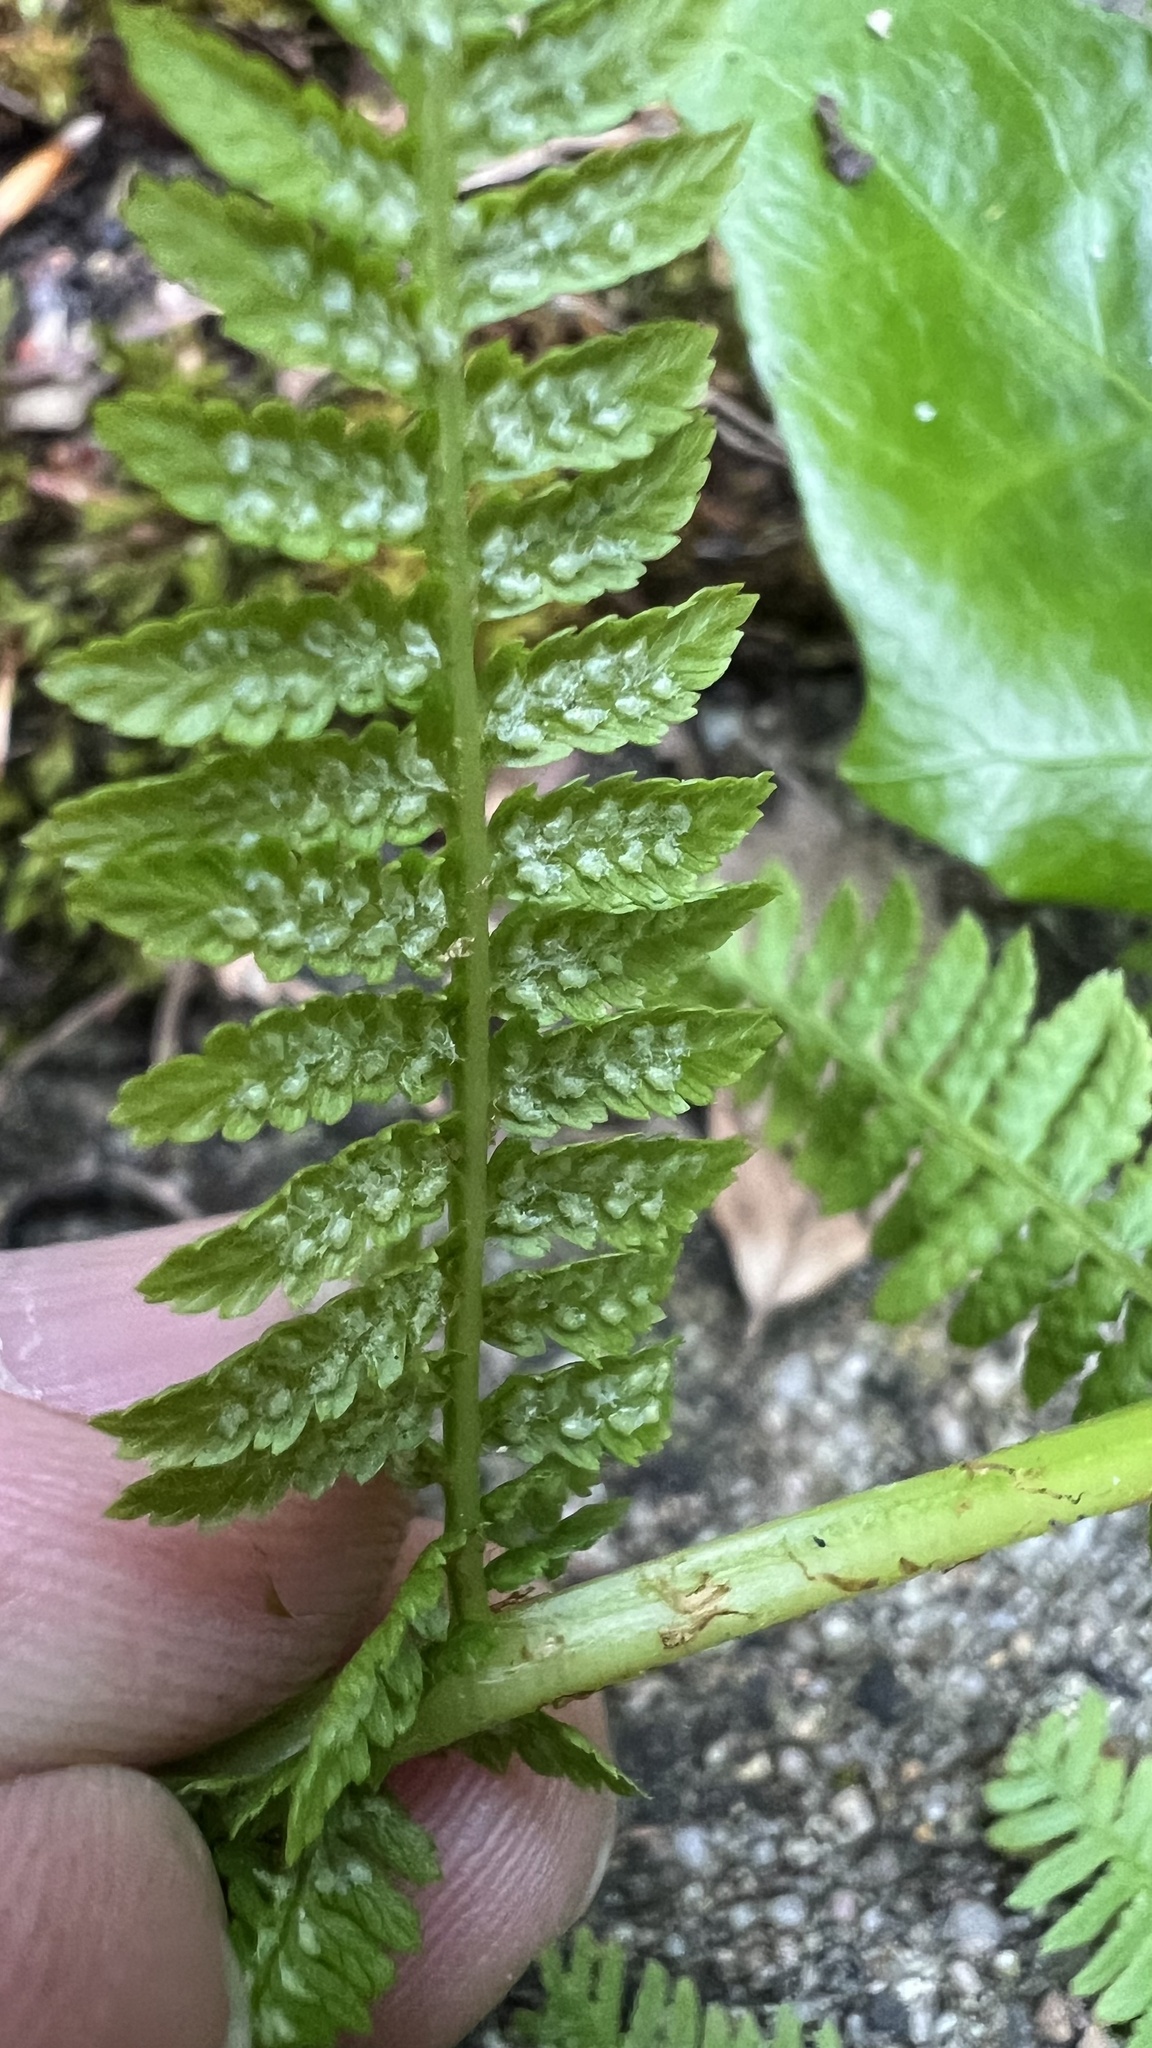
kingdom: Plantae
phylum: Tracheophyta
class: Polypodiopsida
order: Polypodiales
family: Athyriaceae
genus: Athyrium
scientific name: Athyrium filix-femina
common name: Lady fern
